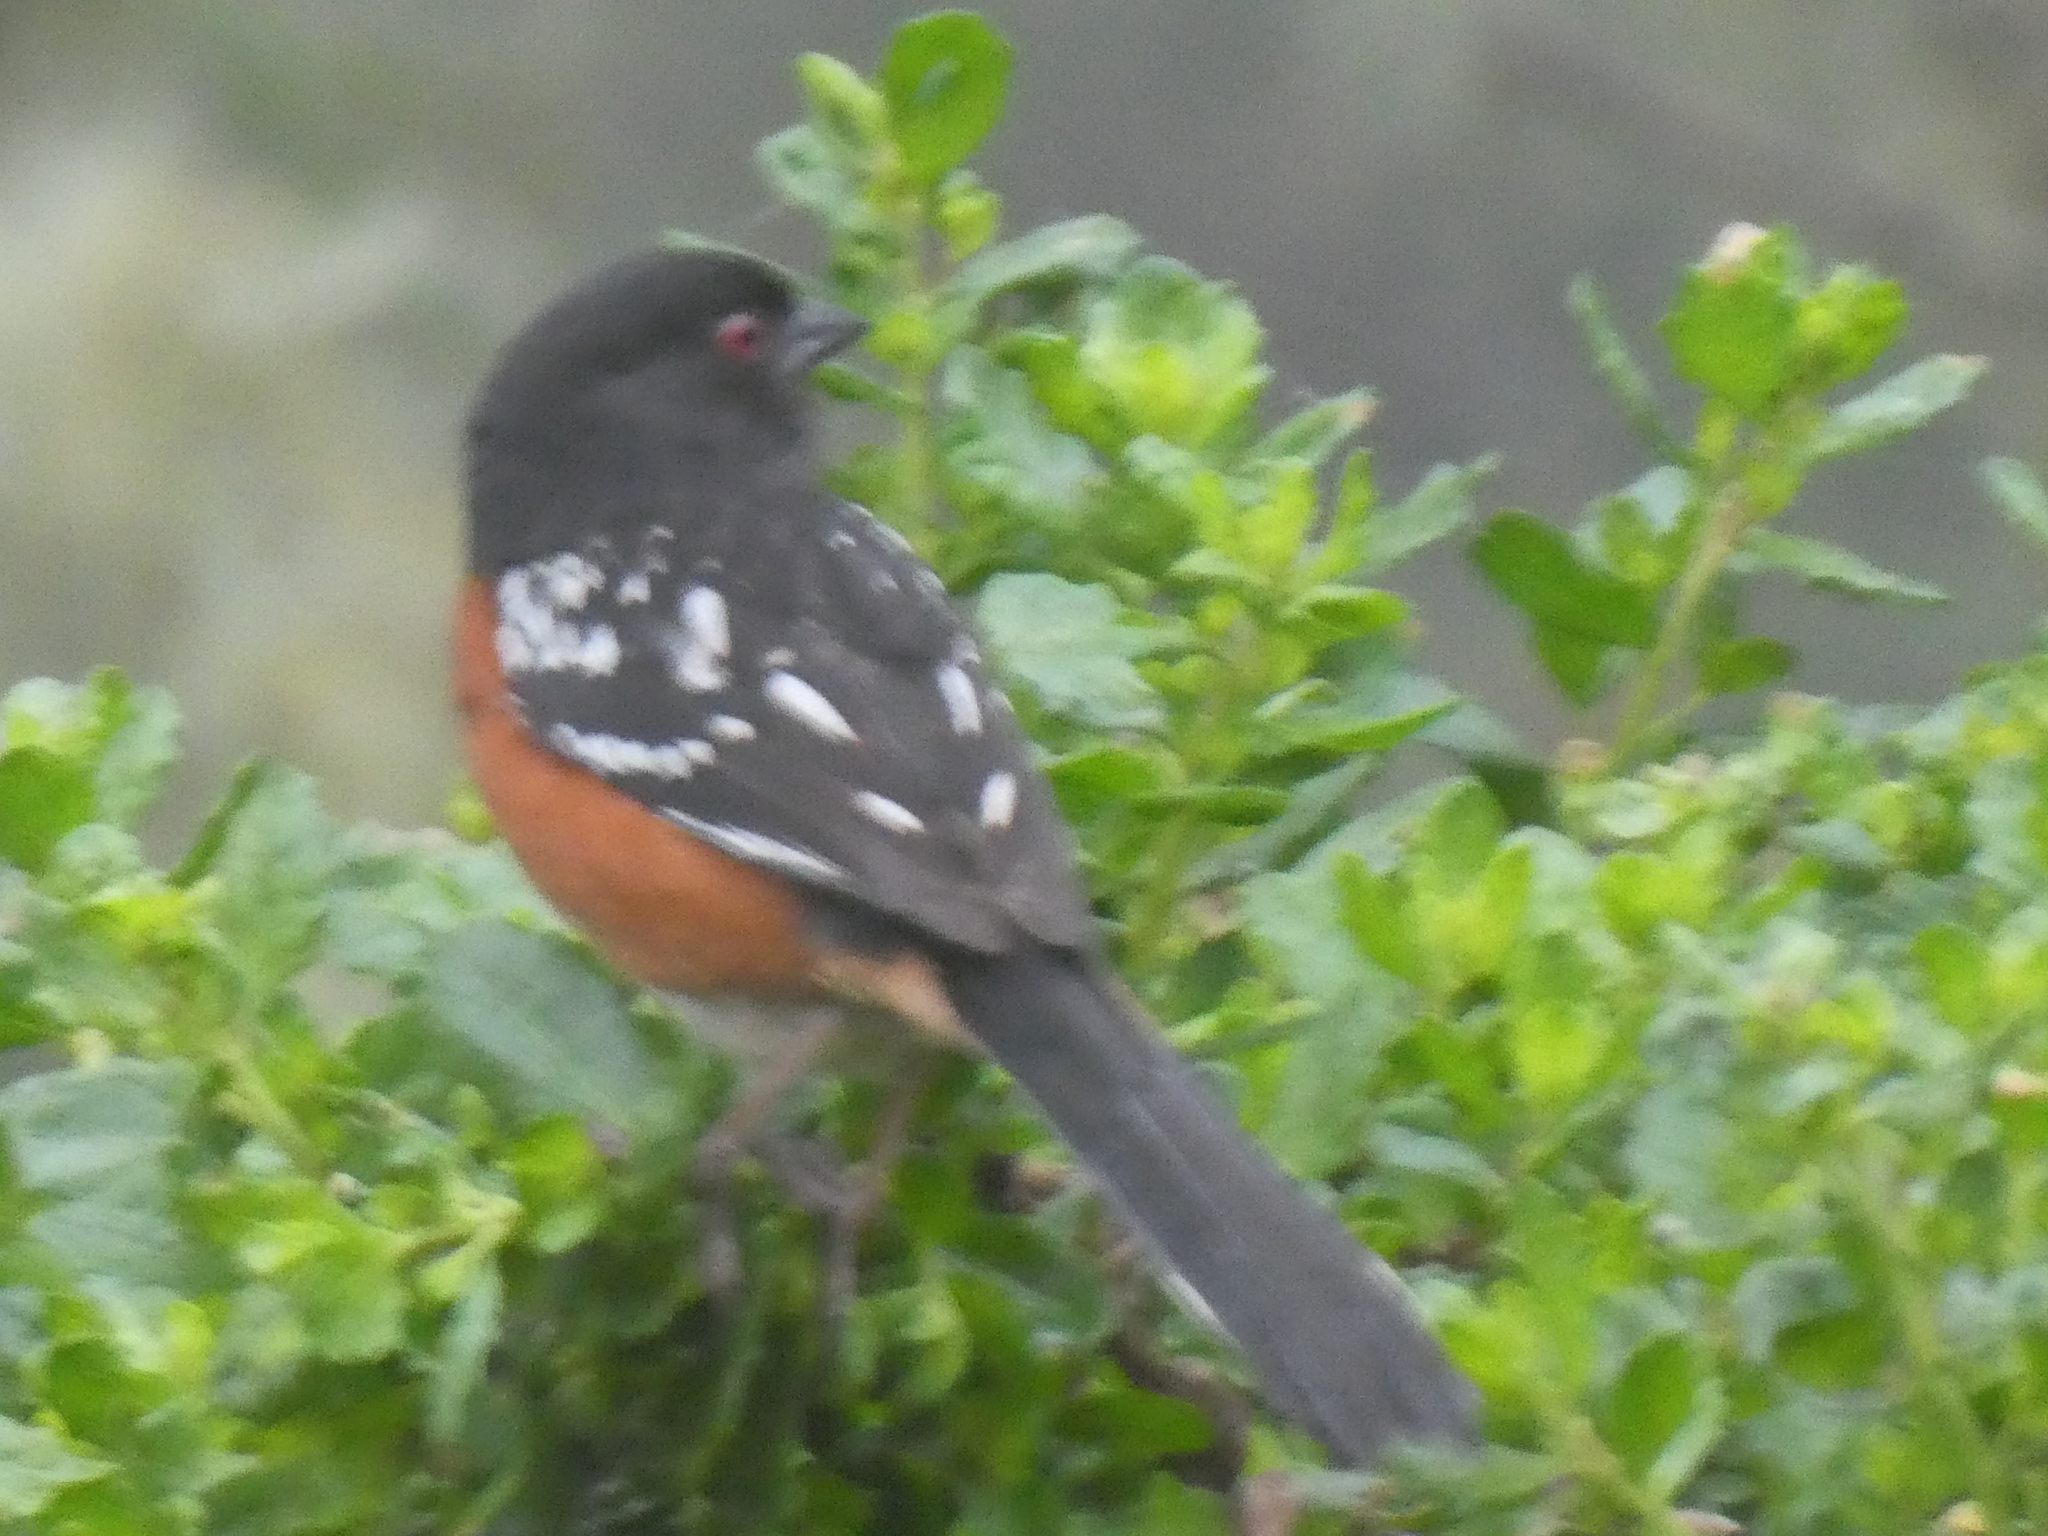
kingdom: Animalia
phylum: Chordata
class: Aves
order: Passeriformes
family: Passerellidae
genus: Pipilo
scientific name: Pipilo maculatus
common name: Spotted towhee
